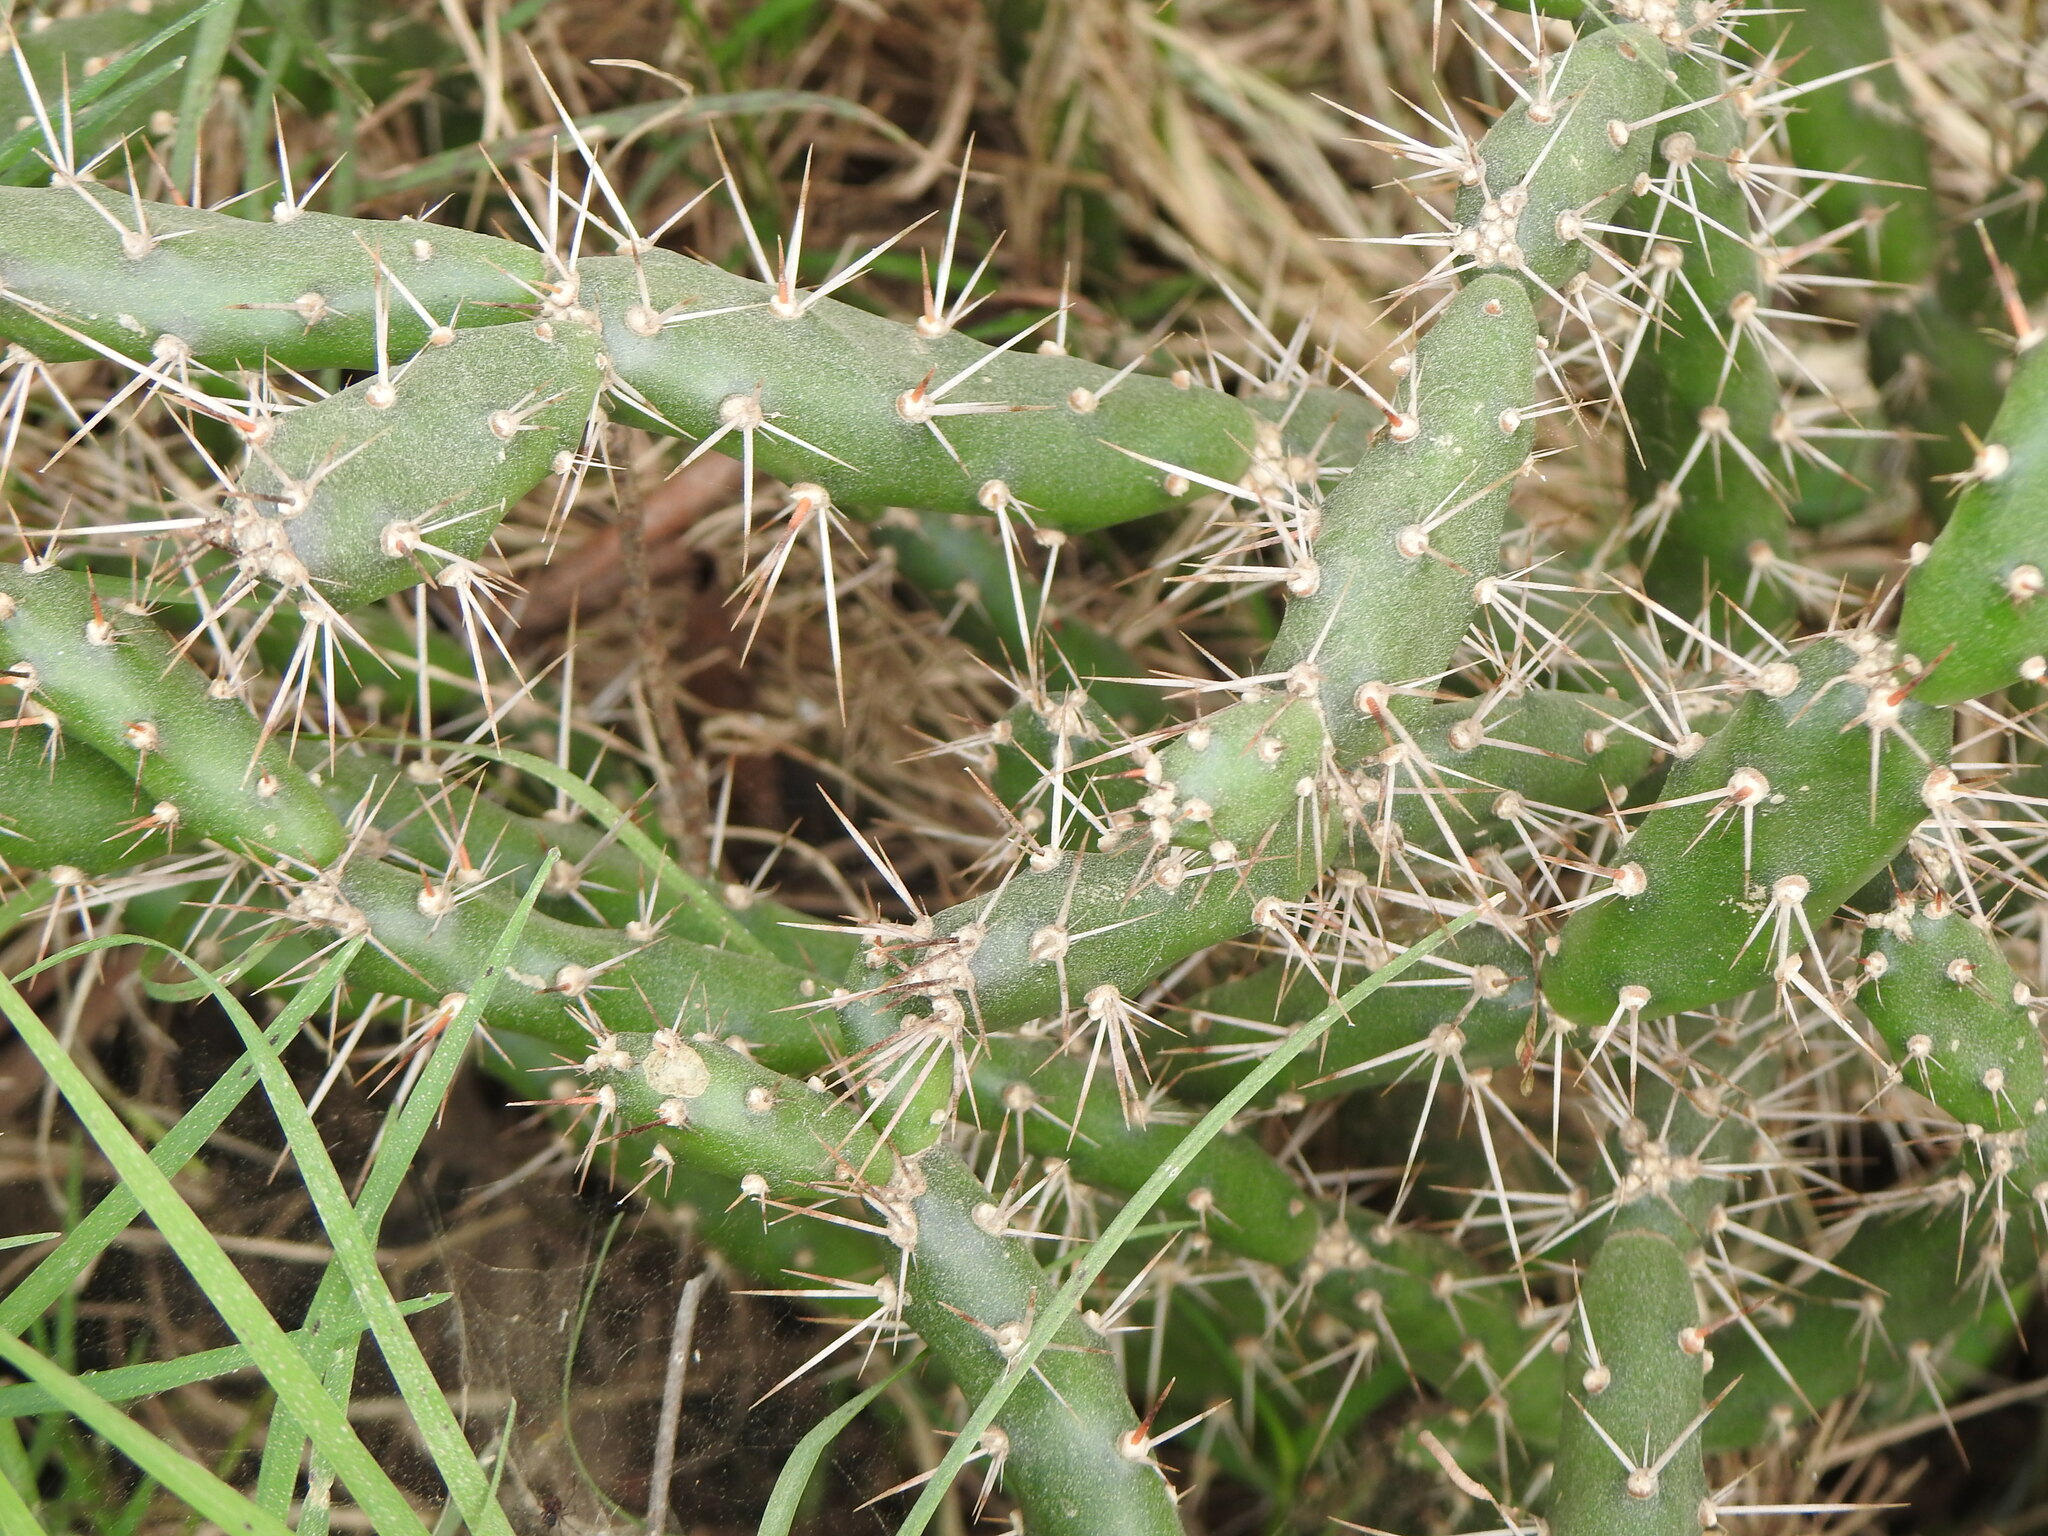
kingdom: Plantae
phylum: Tracheophyta
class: Magnoliopsida
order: Caryophyllales
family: Cactaceae
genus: Opuntia
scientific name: Opuntia aurantiaca
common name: Jointed pricklypear
